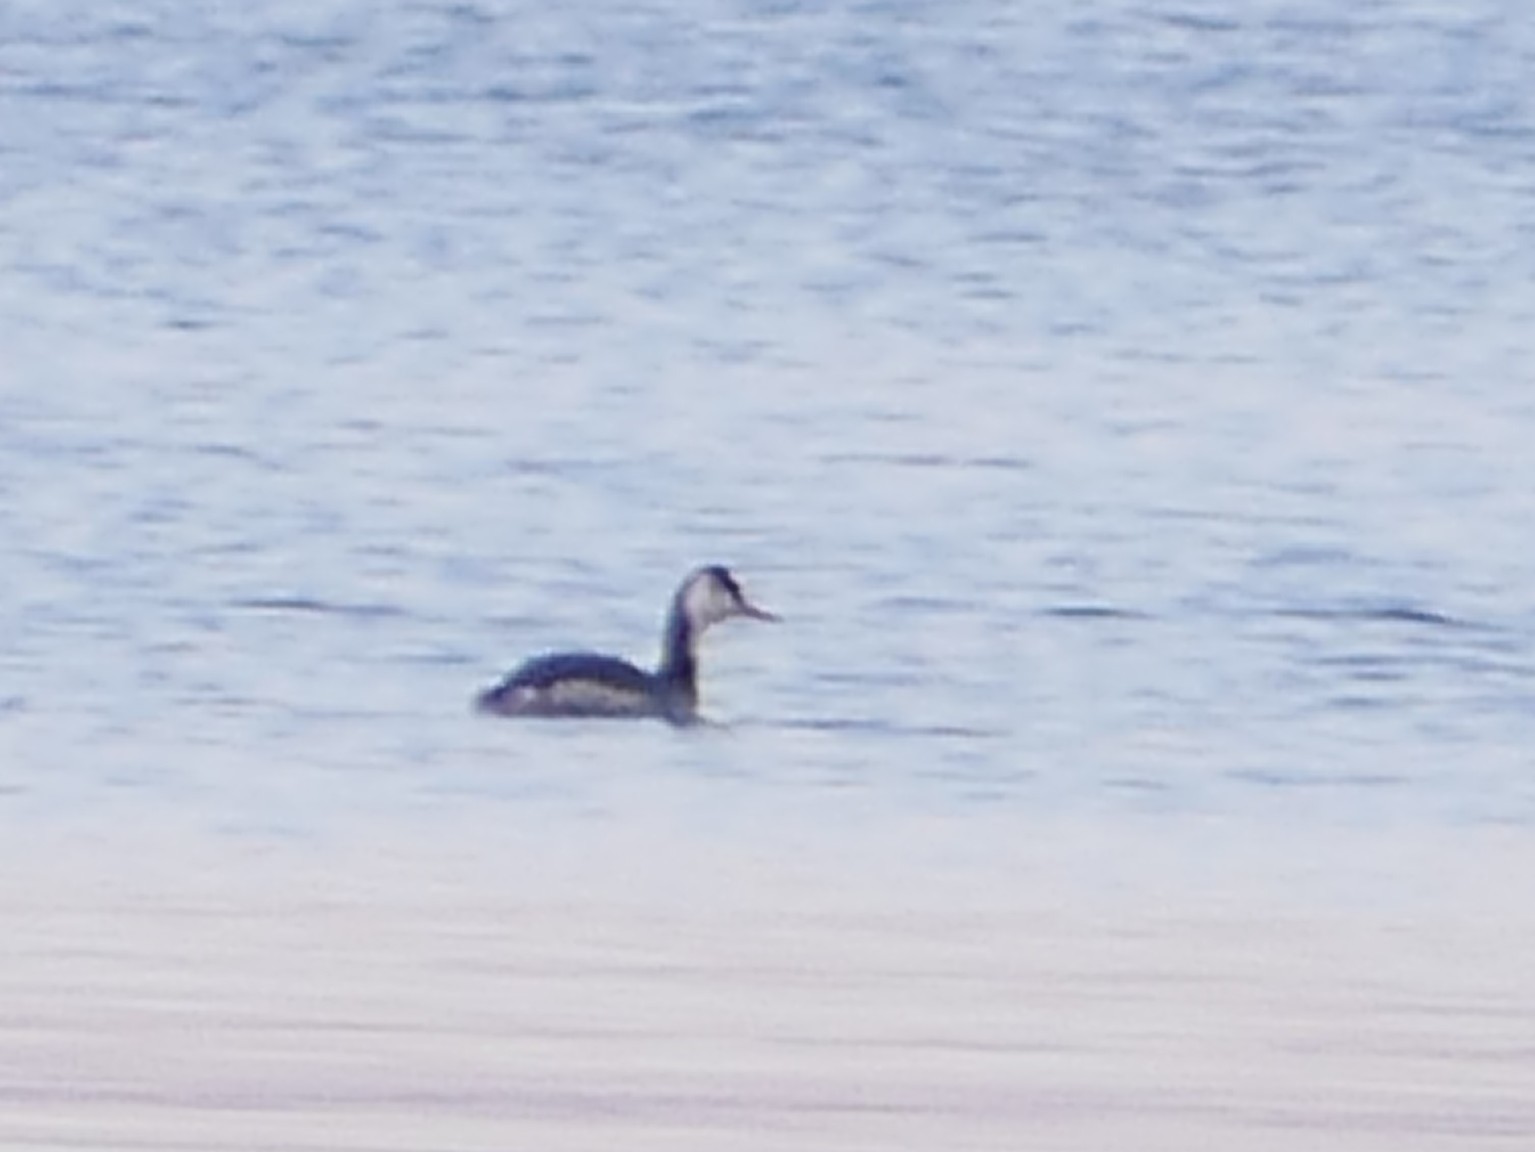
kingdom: Animalia
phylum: Chordata
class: Aves
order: Podicipediformes
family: Podicipedidae
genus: Podiceps
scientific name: Podiceps cristatus
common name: Great crested grebe
